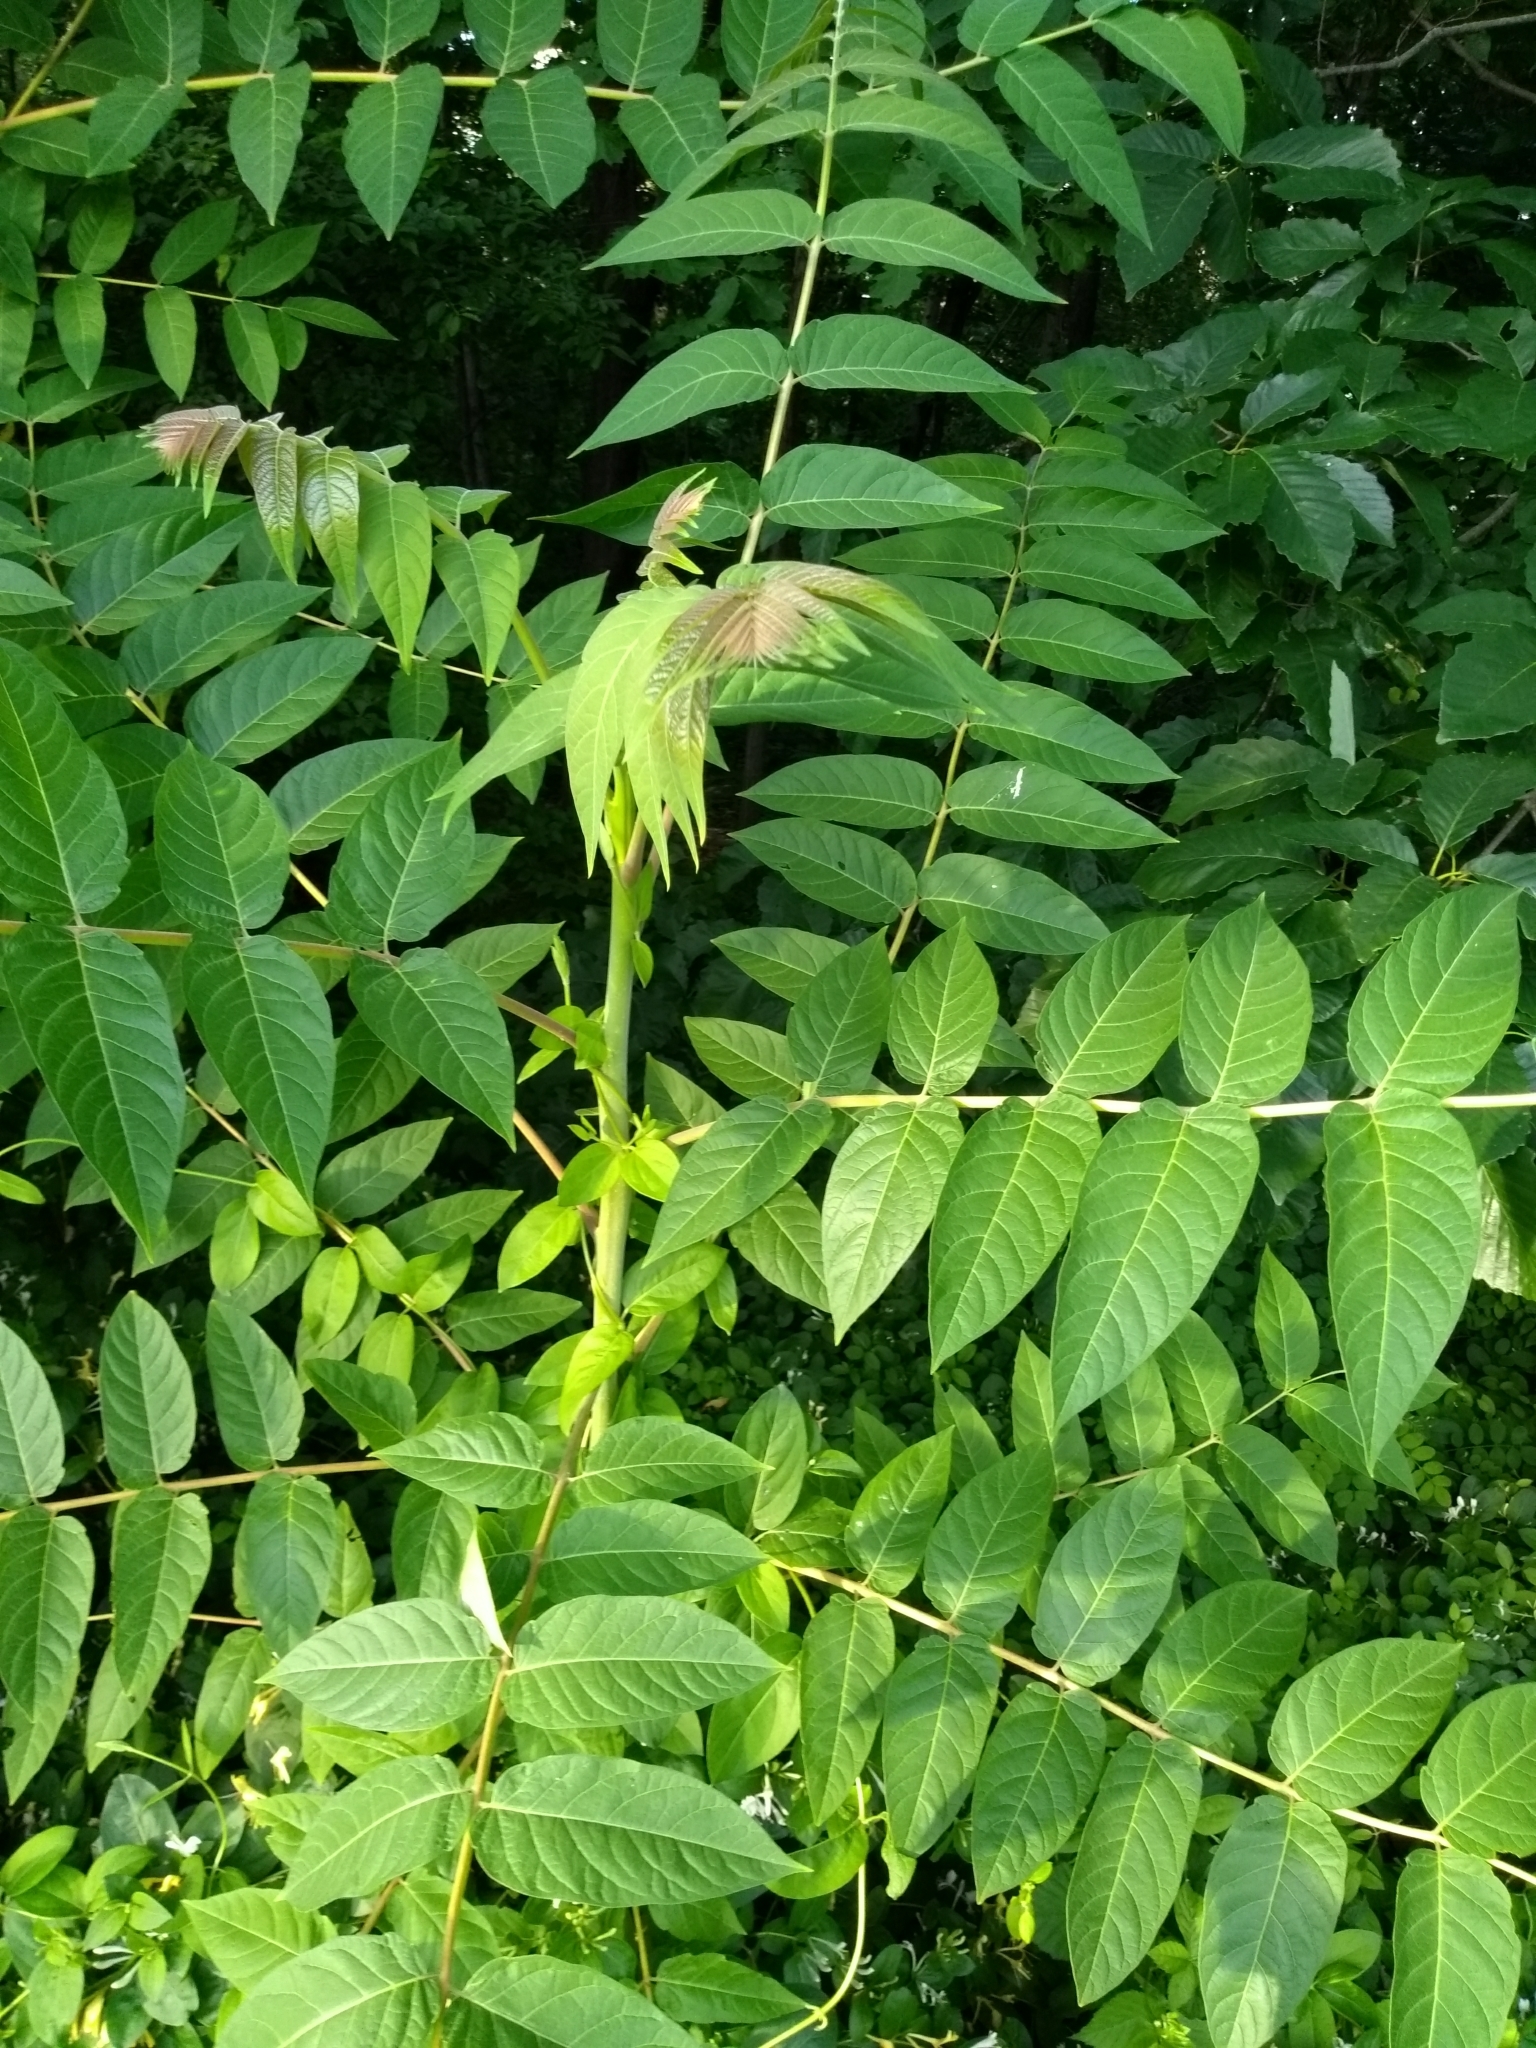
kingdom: Plantae
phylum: Tracheophyta
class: Magnoliopsida
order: Sapindales
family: Simaroubaceae
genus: Ailanthus
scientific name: Ailanthus altissima
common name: Tree-of-heaven
